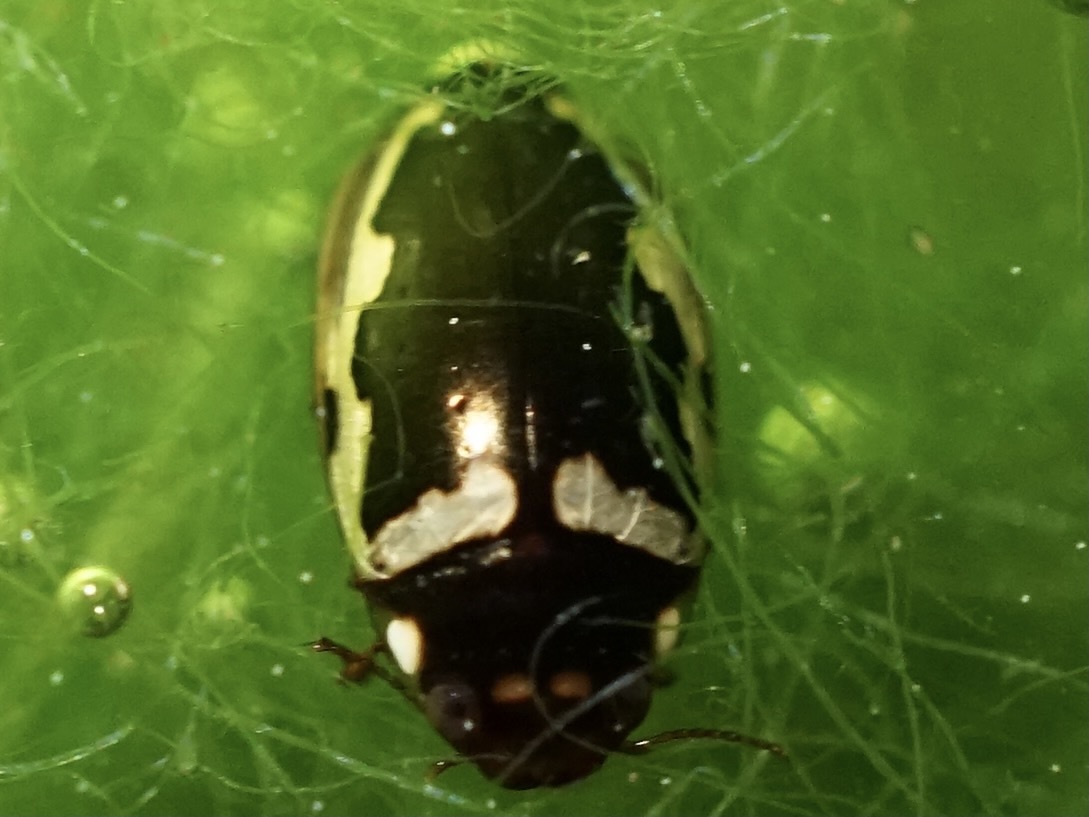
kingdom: Animalia
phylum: Arthropoda
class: Insecta
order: Coleoptera
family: Dytiscidae
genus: Platambus
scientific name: Platambus fimbriatus
